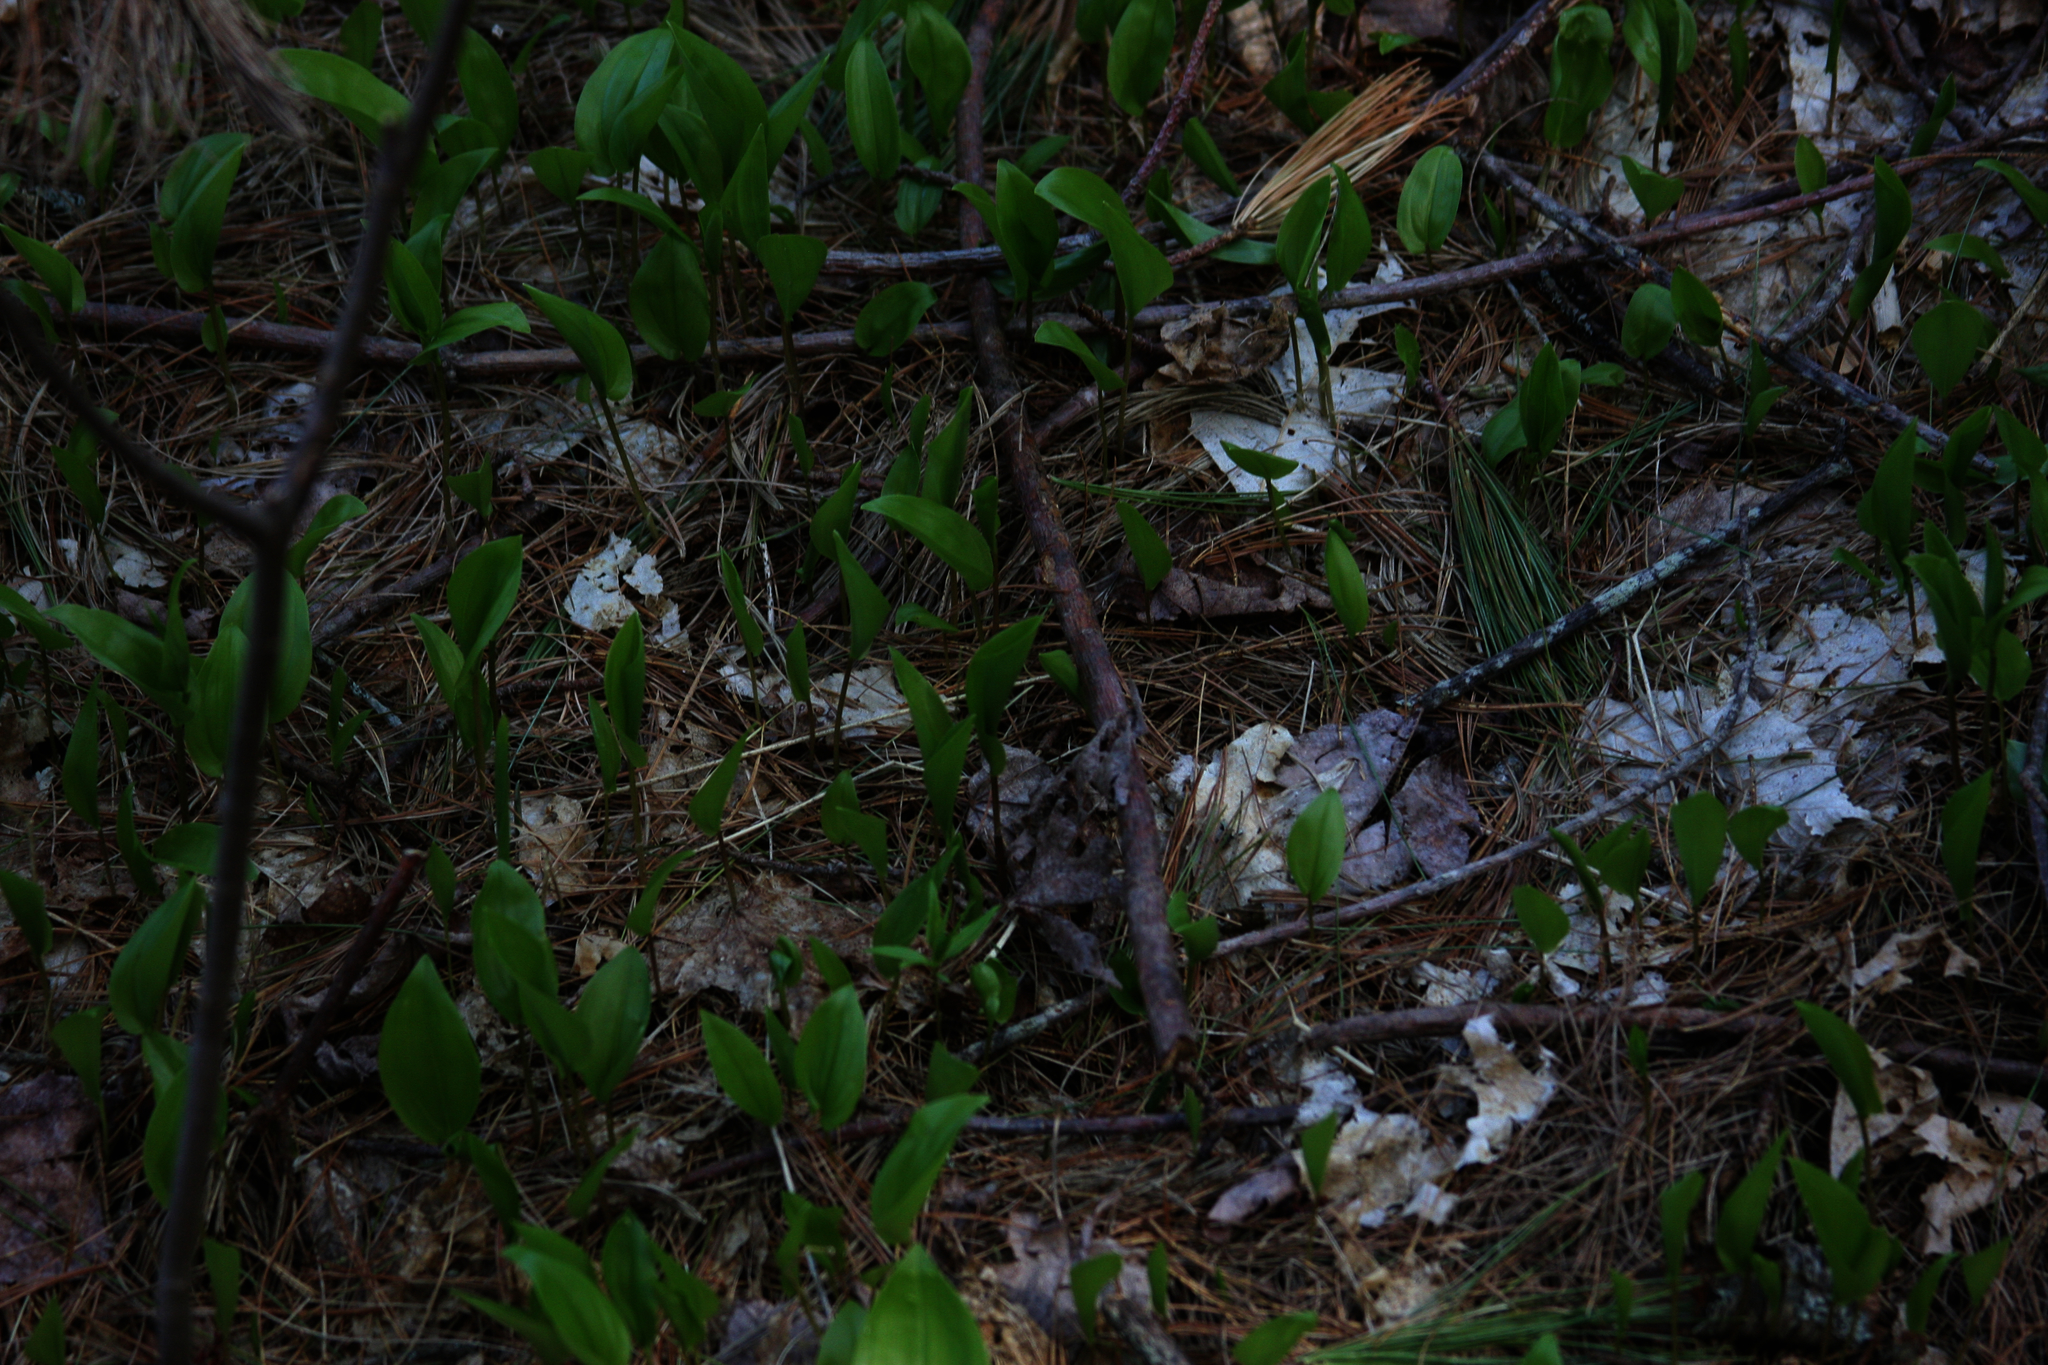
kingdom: Plantae
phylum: Tracheophyta
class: Liliopsida
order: Asparagales
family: Asparagaceae
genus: Maianthemum
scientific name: Maianthemum canadense
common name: False lily-of-the-valley
